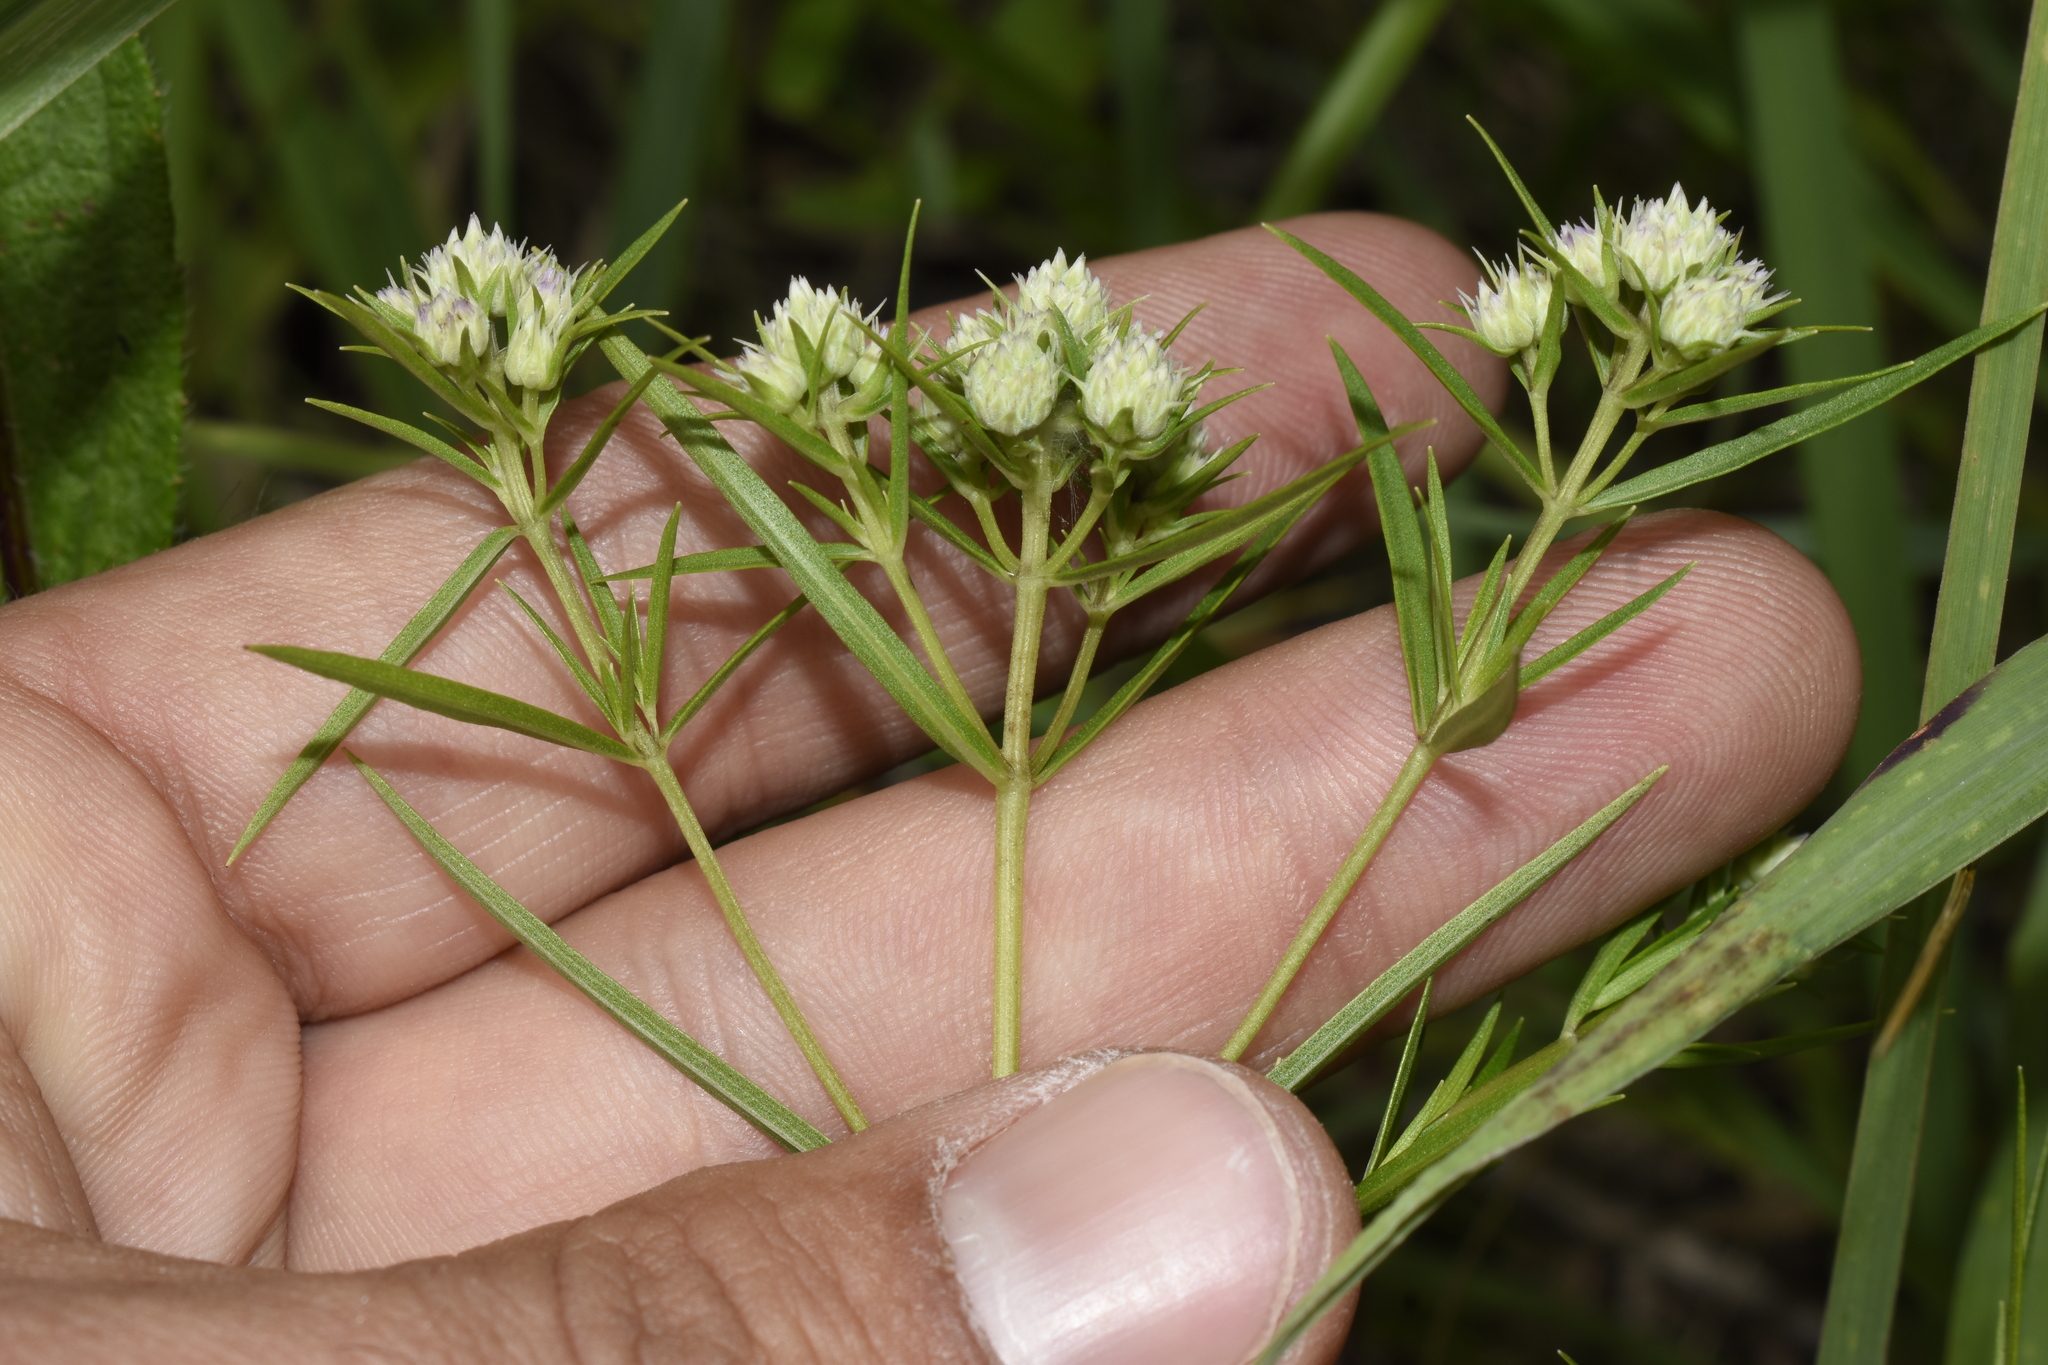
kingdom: Plantae
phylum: Tracheophyta
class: Magnoliopsida
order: Lamiales
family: Lamiaceae
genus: Pycnanthemum
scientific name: Pycnanthemum tenuifolium
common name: Narrow-leaf mountain-mint
